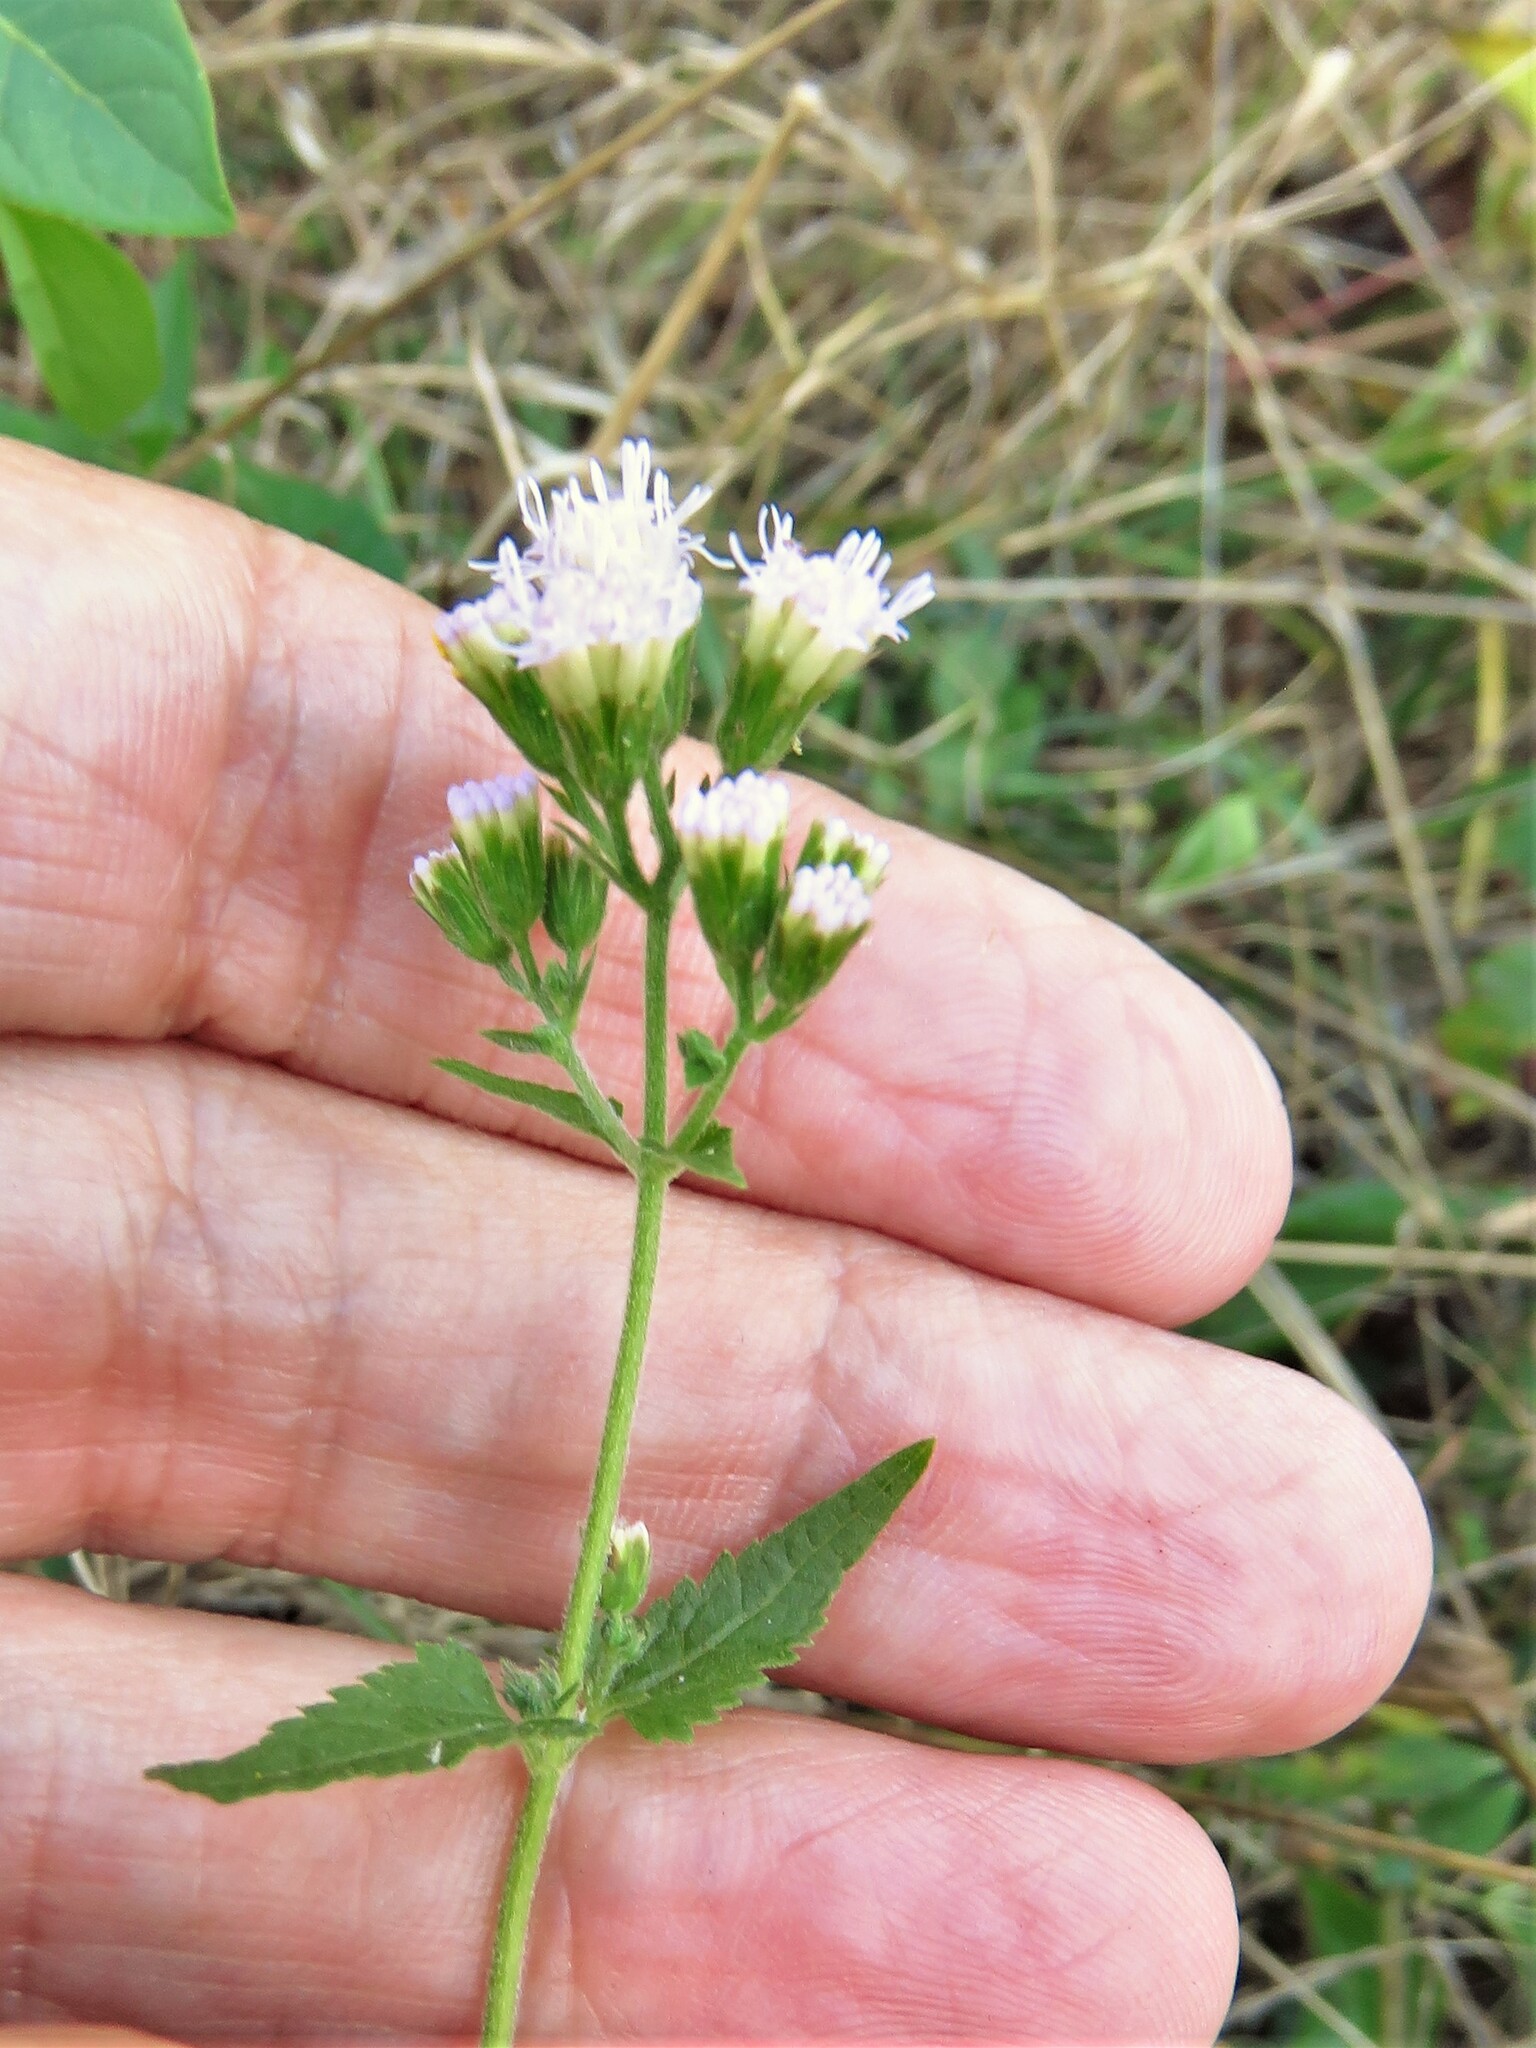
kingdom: Plantae
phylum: Tracheophyta
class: Magnoliopsida
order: Asterales
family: Asteraceae
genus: Fleischmannia
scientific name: Fleischmannia incarnata
